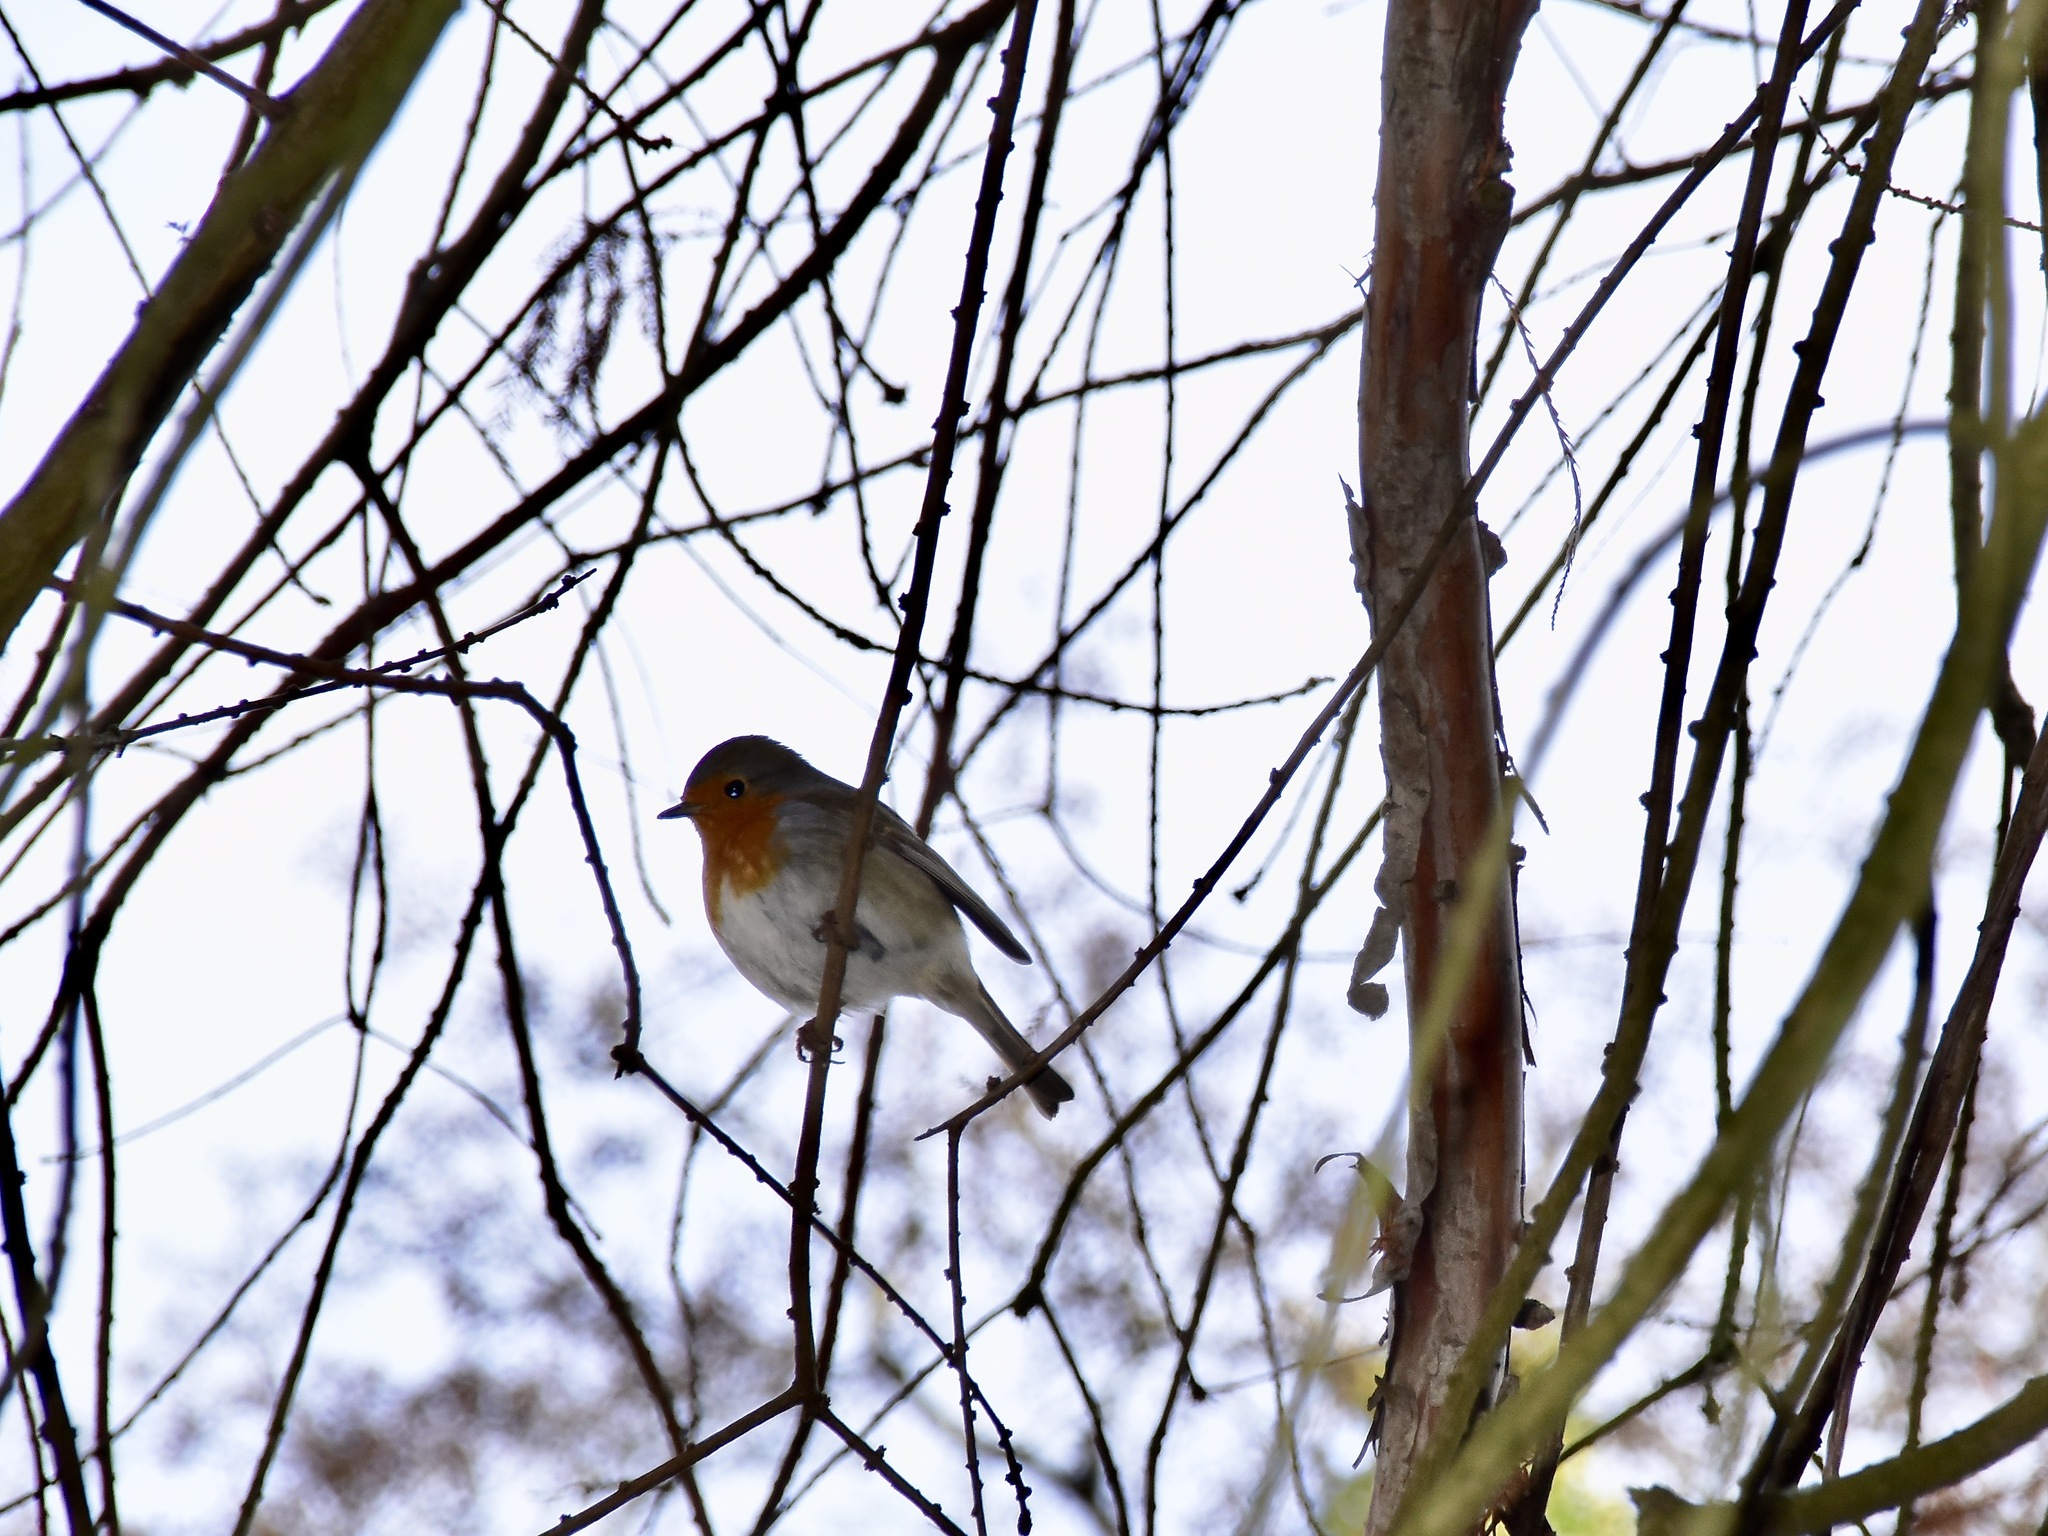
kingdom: Animalia
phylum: Chordata
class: Aves
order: Passeriformes
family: Muscicapidae
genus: Erithacus
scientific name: Erithacus rubecula
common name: European robin
